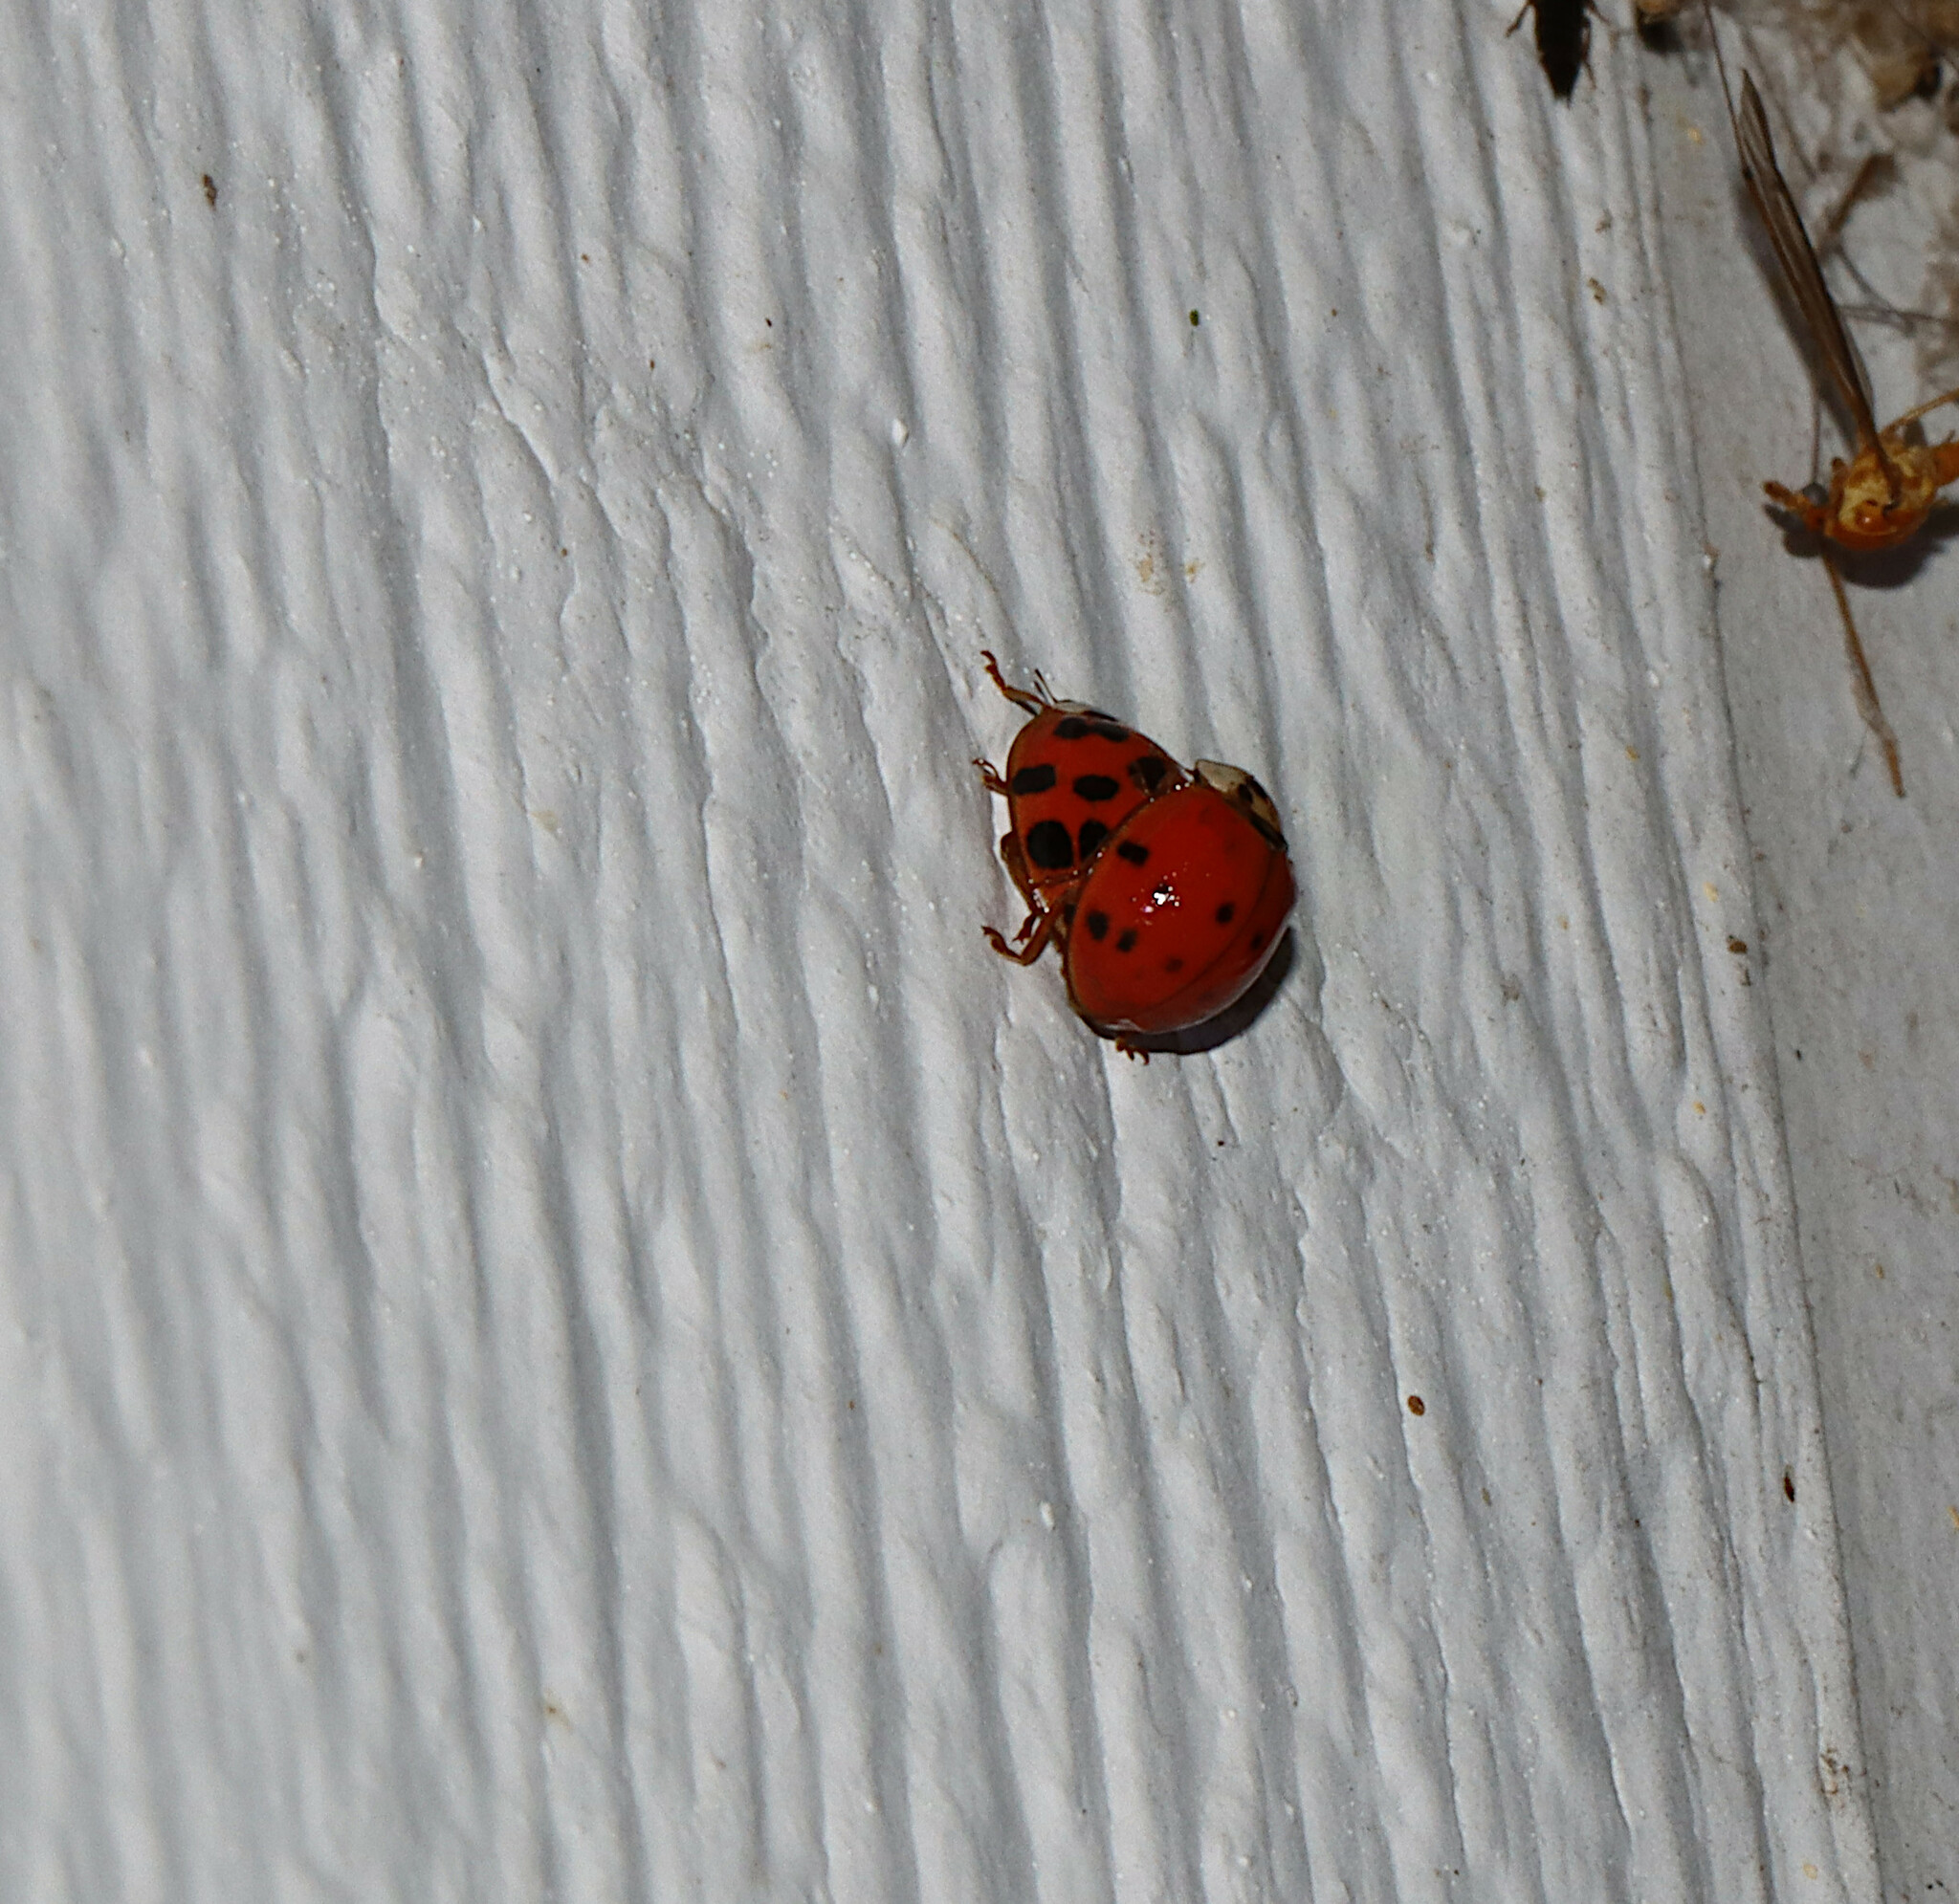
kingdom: Animalia
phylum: Arthropoda
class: Insecta
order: Coleoptera
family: Coccinellidae
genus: Harmonia
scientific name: Harmonia axyridis
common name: Harlequin ladybird
